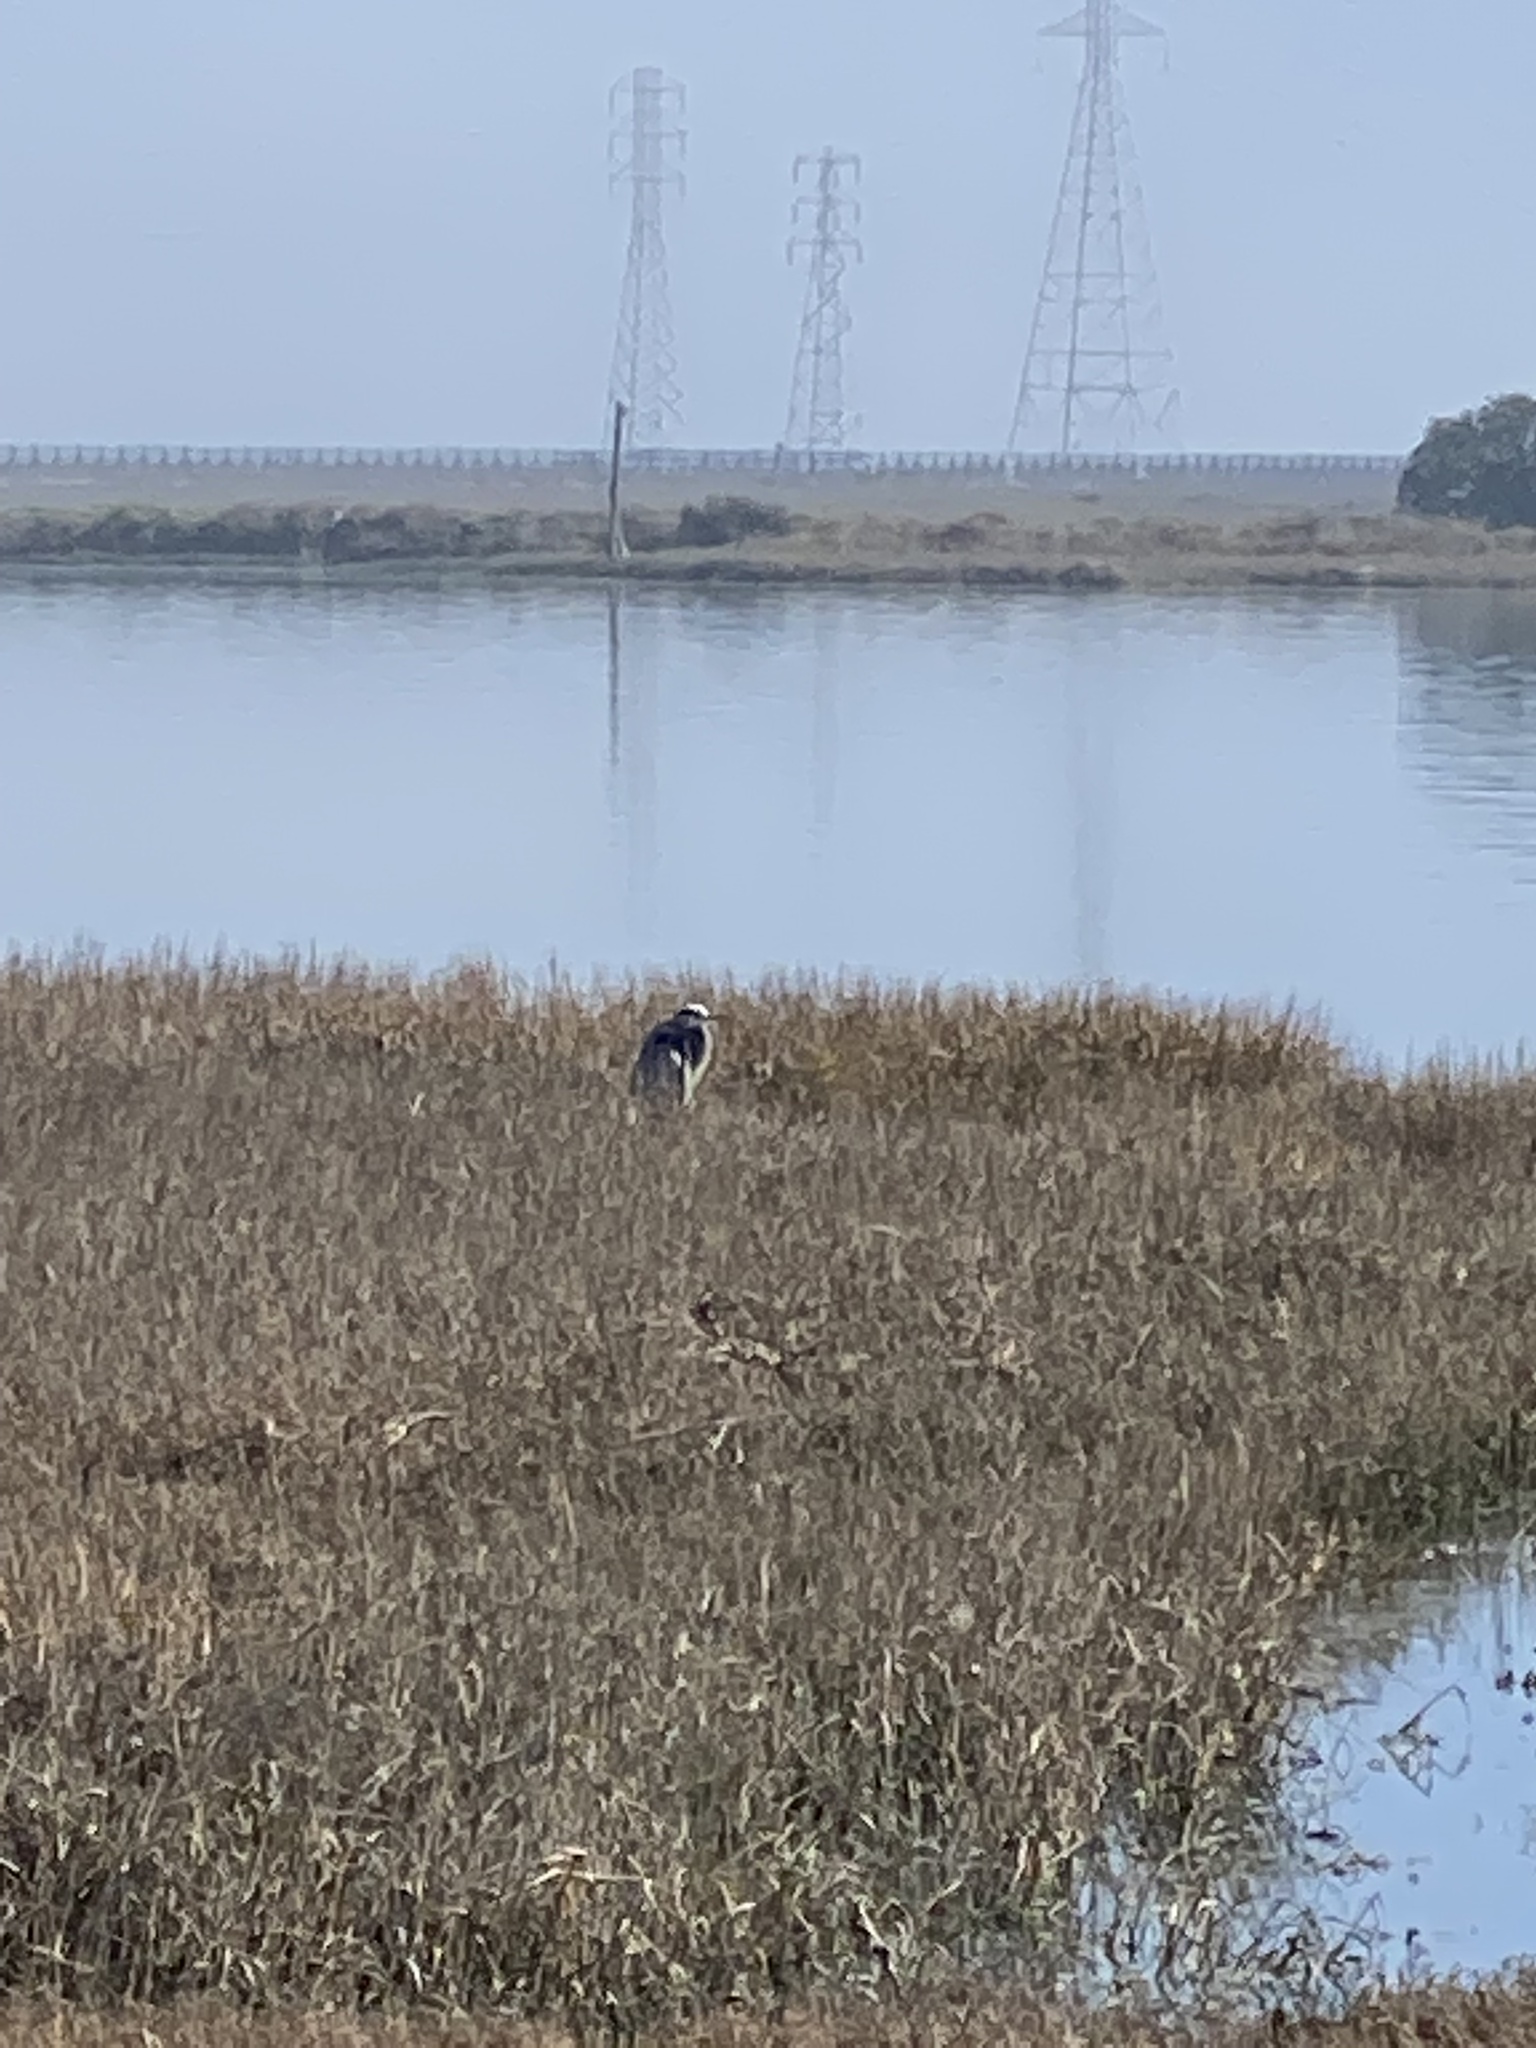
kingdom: Animalia
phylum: Chordata
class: Aves
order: Pelecaniformes
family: Ardeidae
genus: Ardea
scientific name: Ardea herodias
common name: Great blue heron
